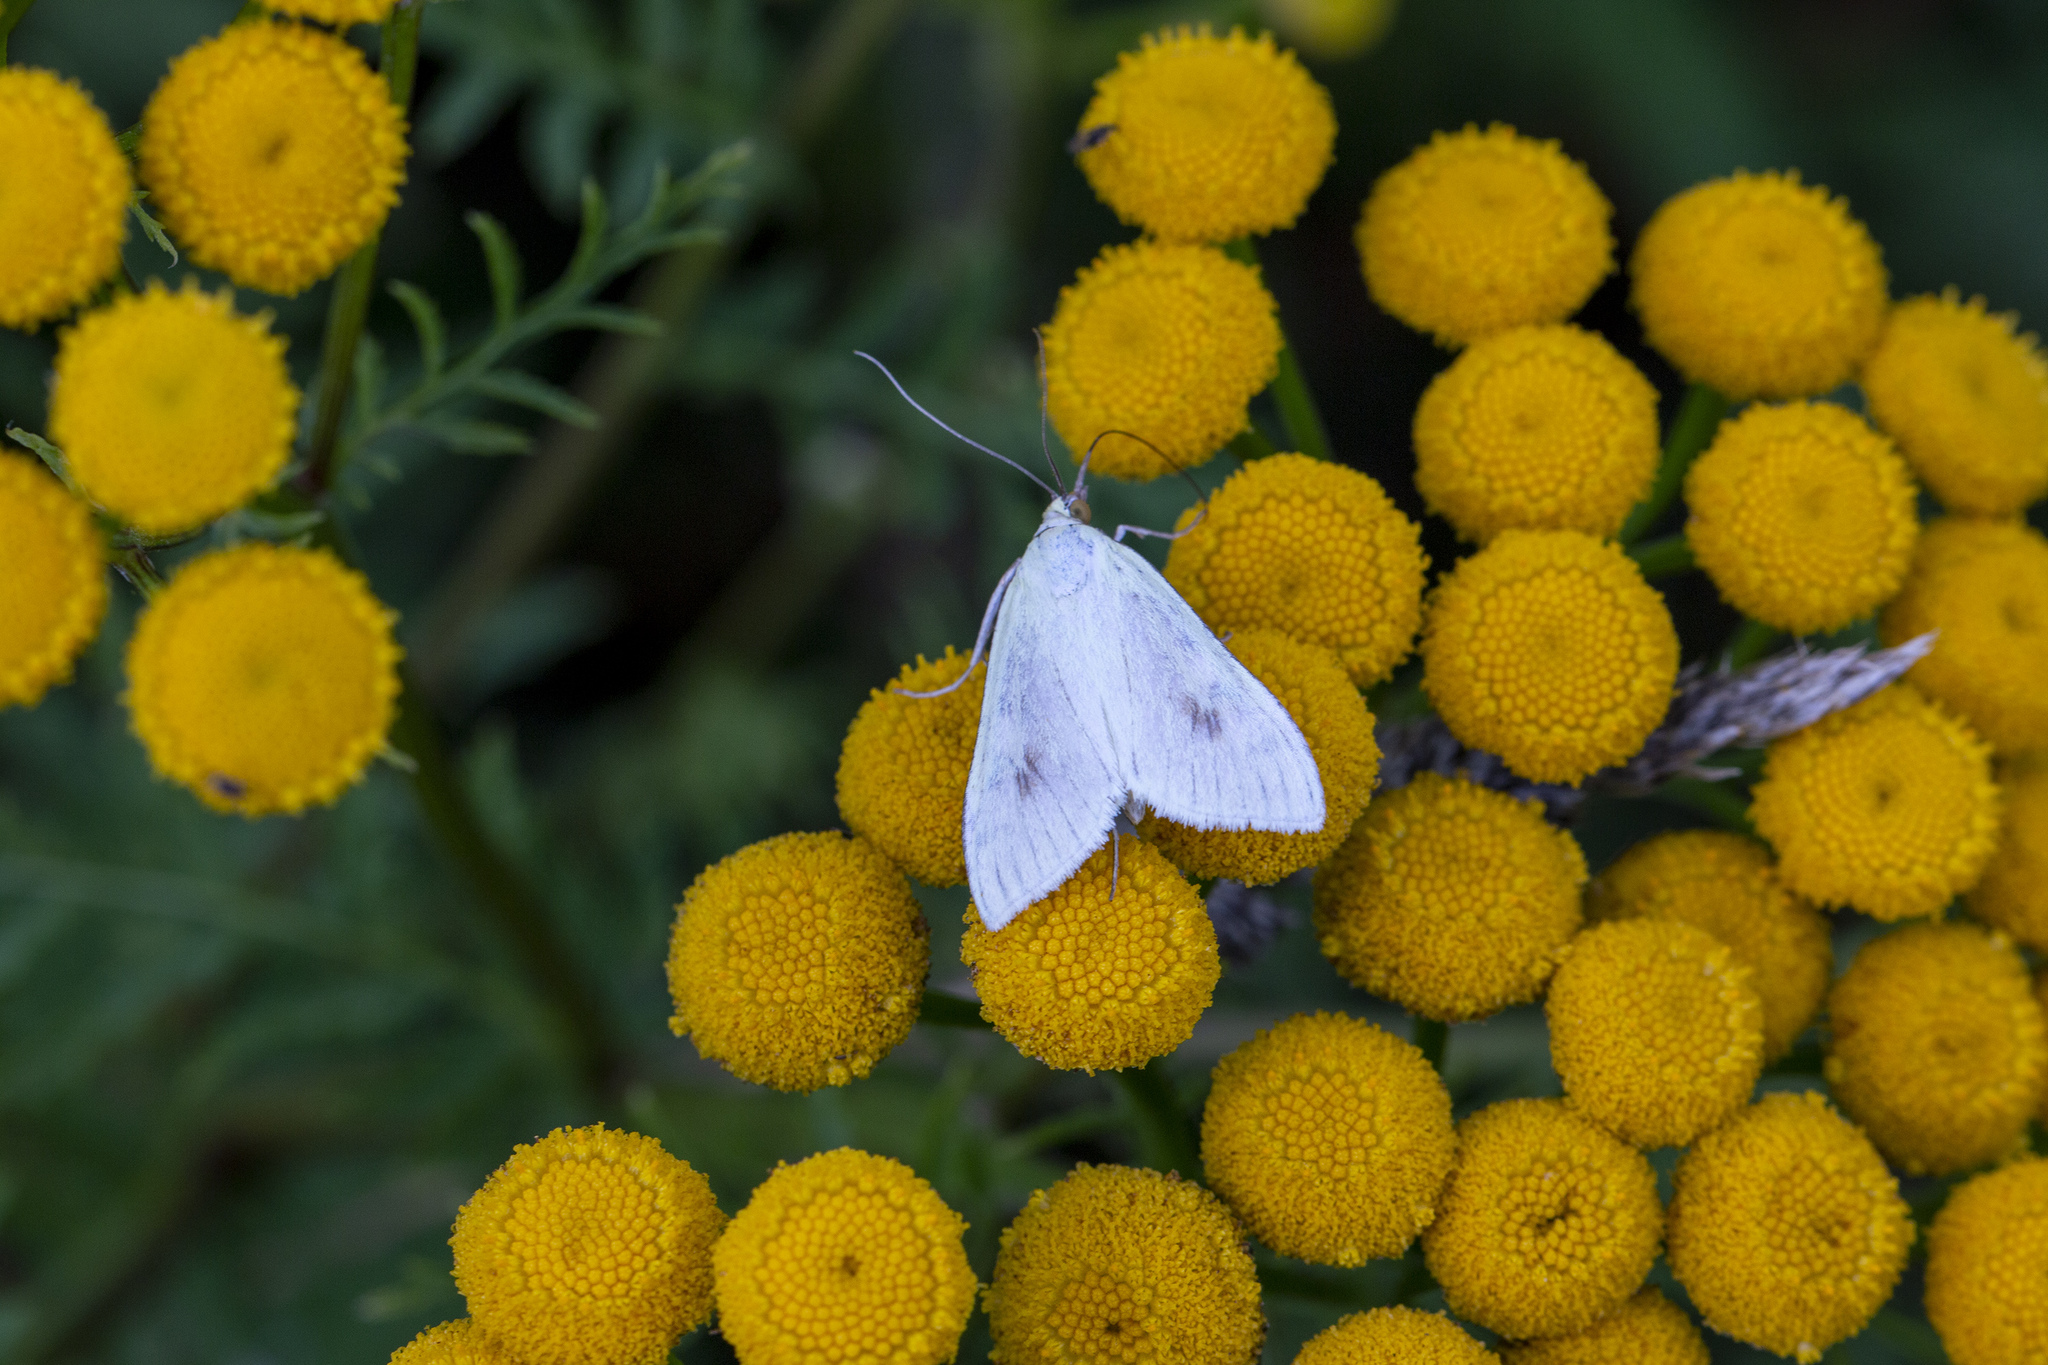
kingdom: Animalia
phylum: Arthropoda
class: Insecta
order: Lepidoptera
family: Crambidae
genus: Sitochroa
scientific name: Sitochroa palealis
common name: Greenish-yellow sitochroa moth
